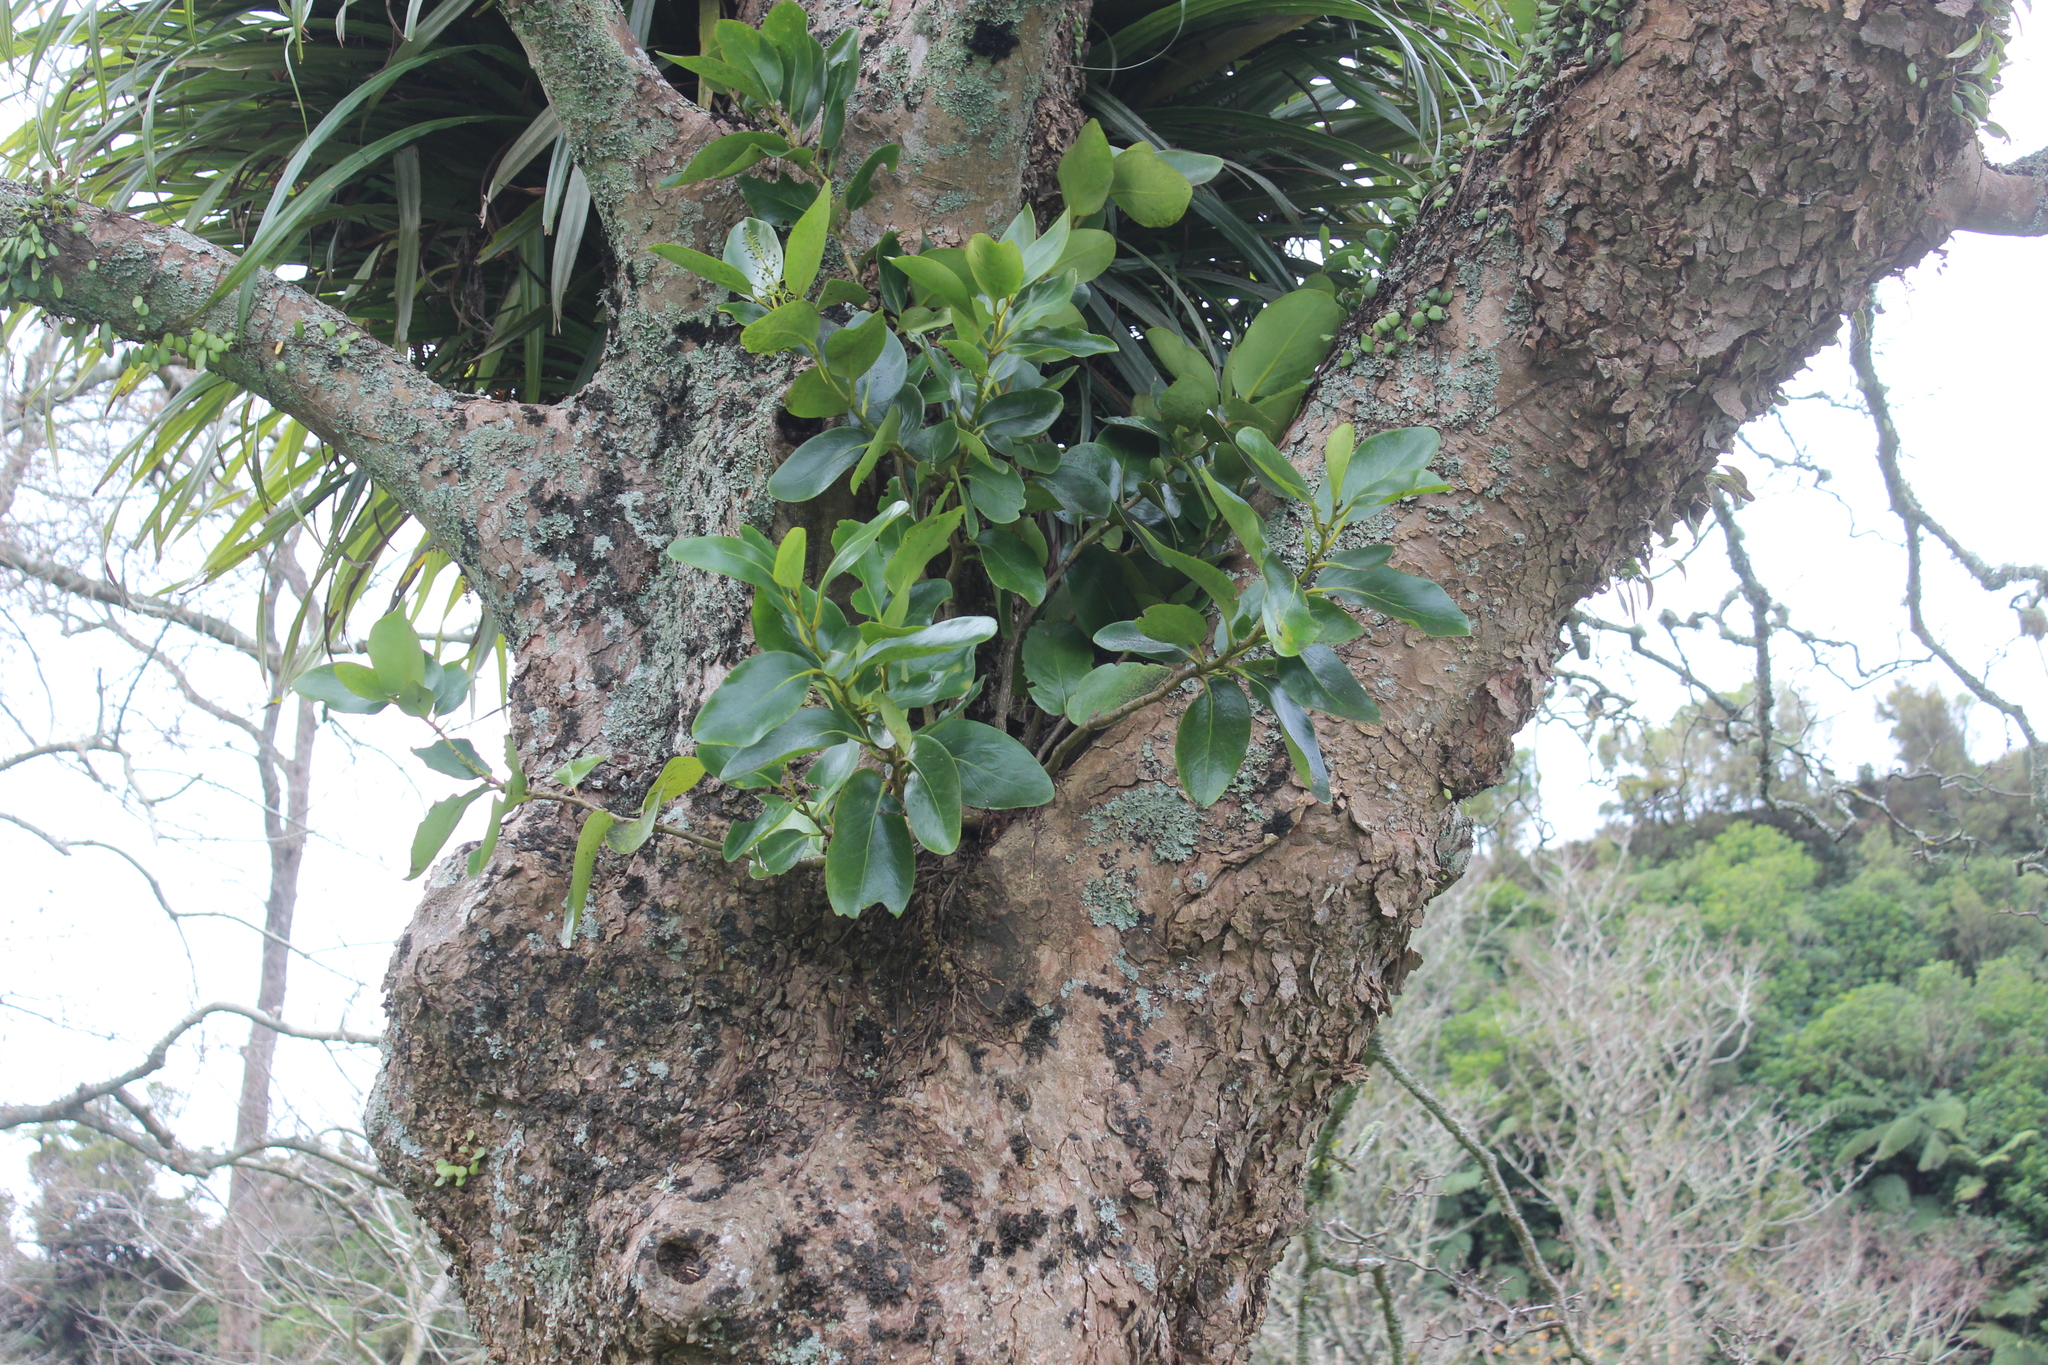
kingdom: Plantae
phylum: Tracheophyta
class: Magnoliopsida
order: Apiales
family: Griseliniaceae
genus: Griselinia
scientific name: Griselinia lucida
